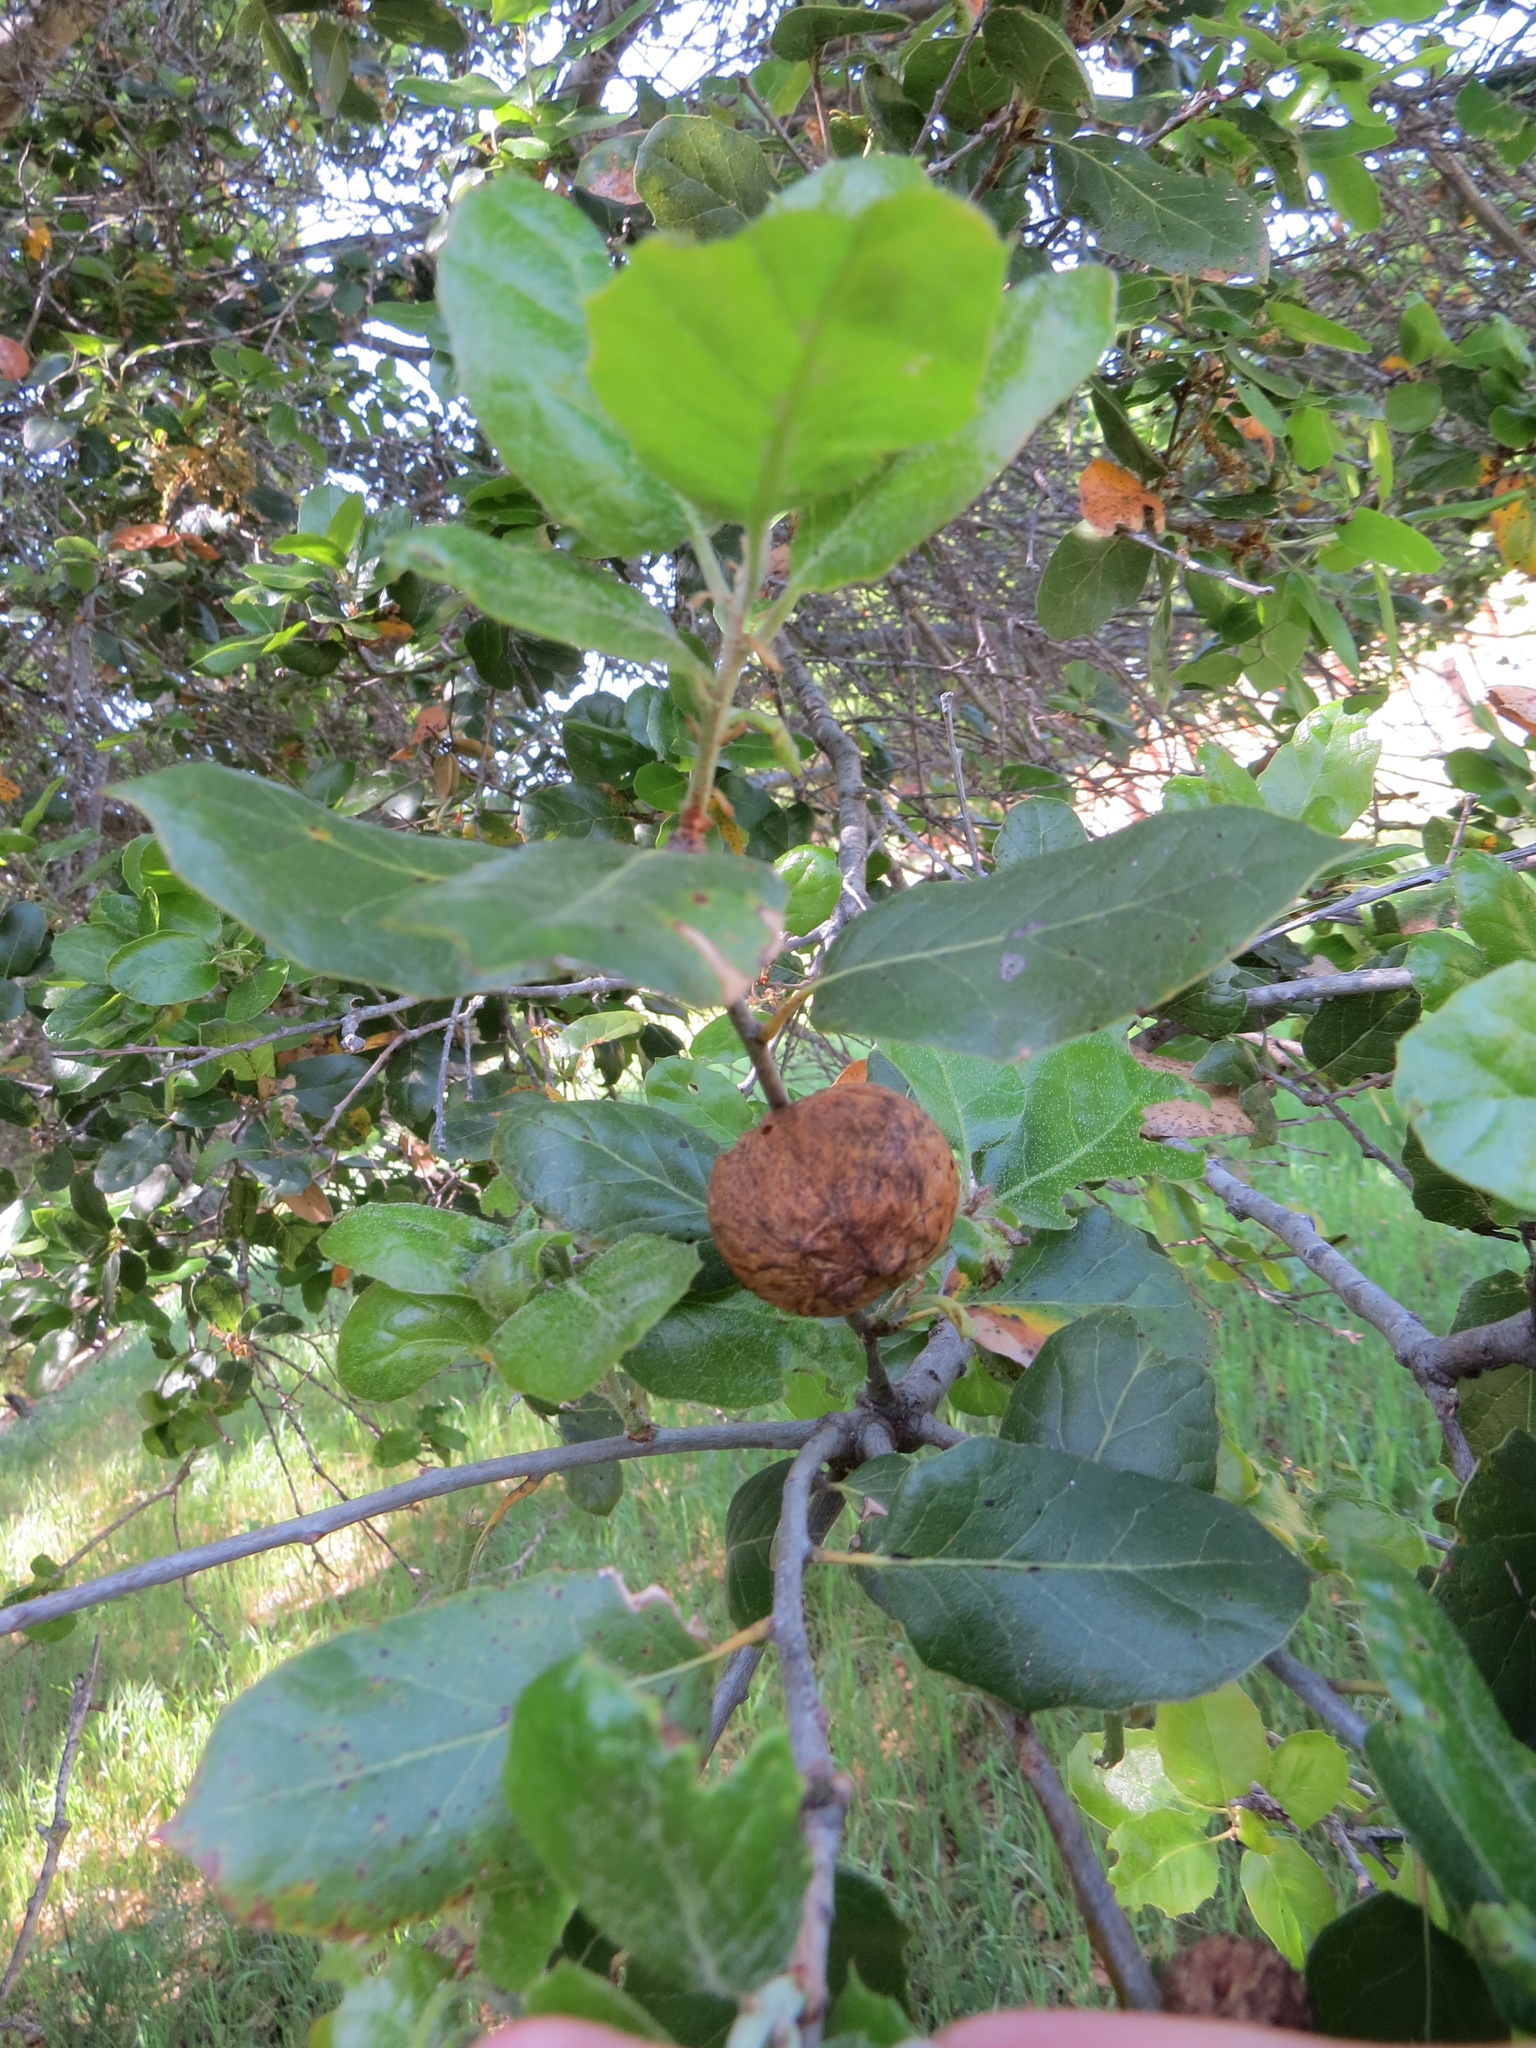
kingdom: Animalia
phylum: Arthropoda
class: Insecta
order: Hymenoptera
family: Cynipidae
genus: Amphibolips
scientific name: Amphibolips quercuspomiformis
